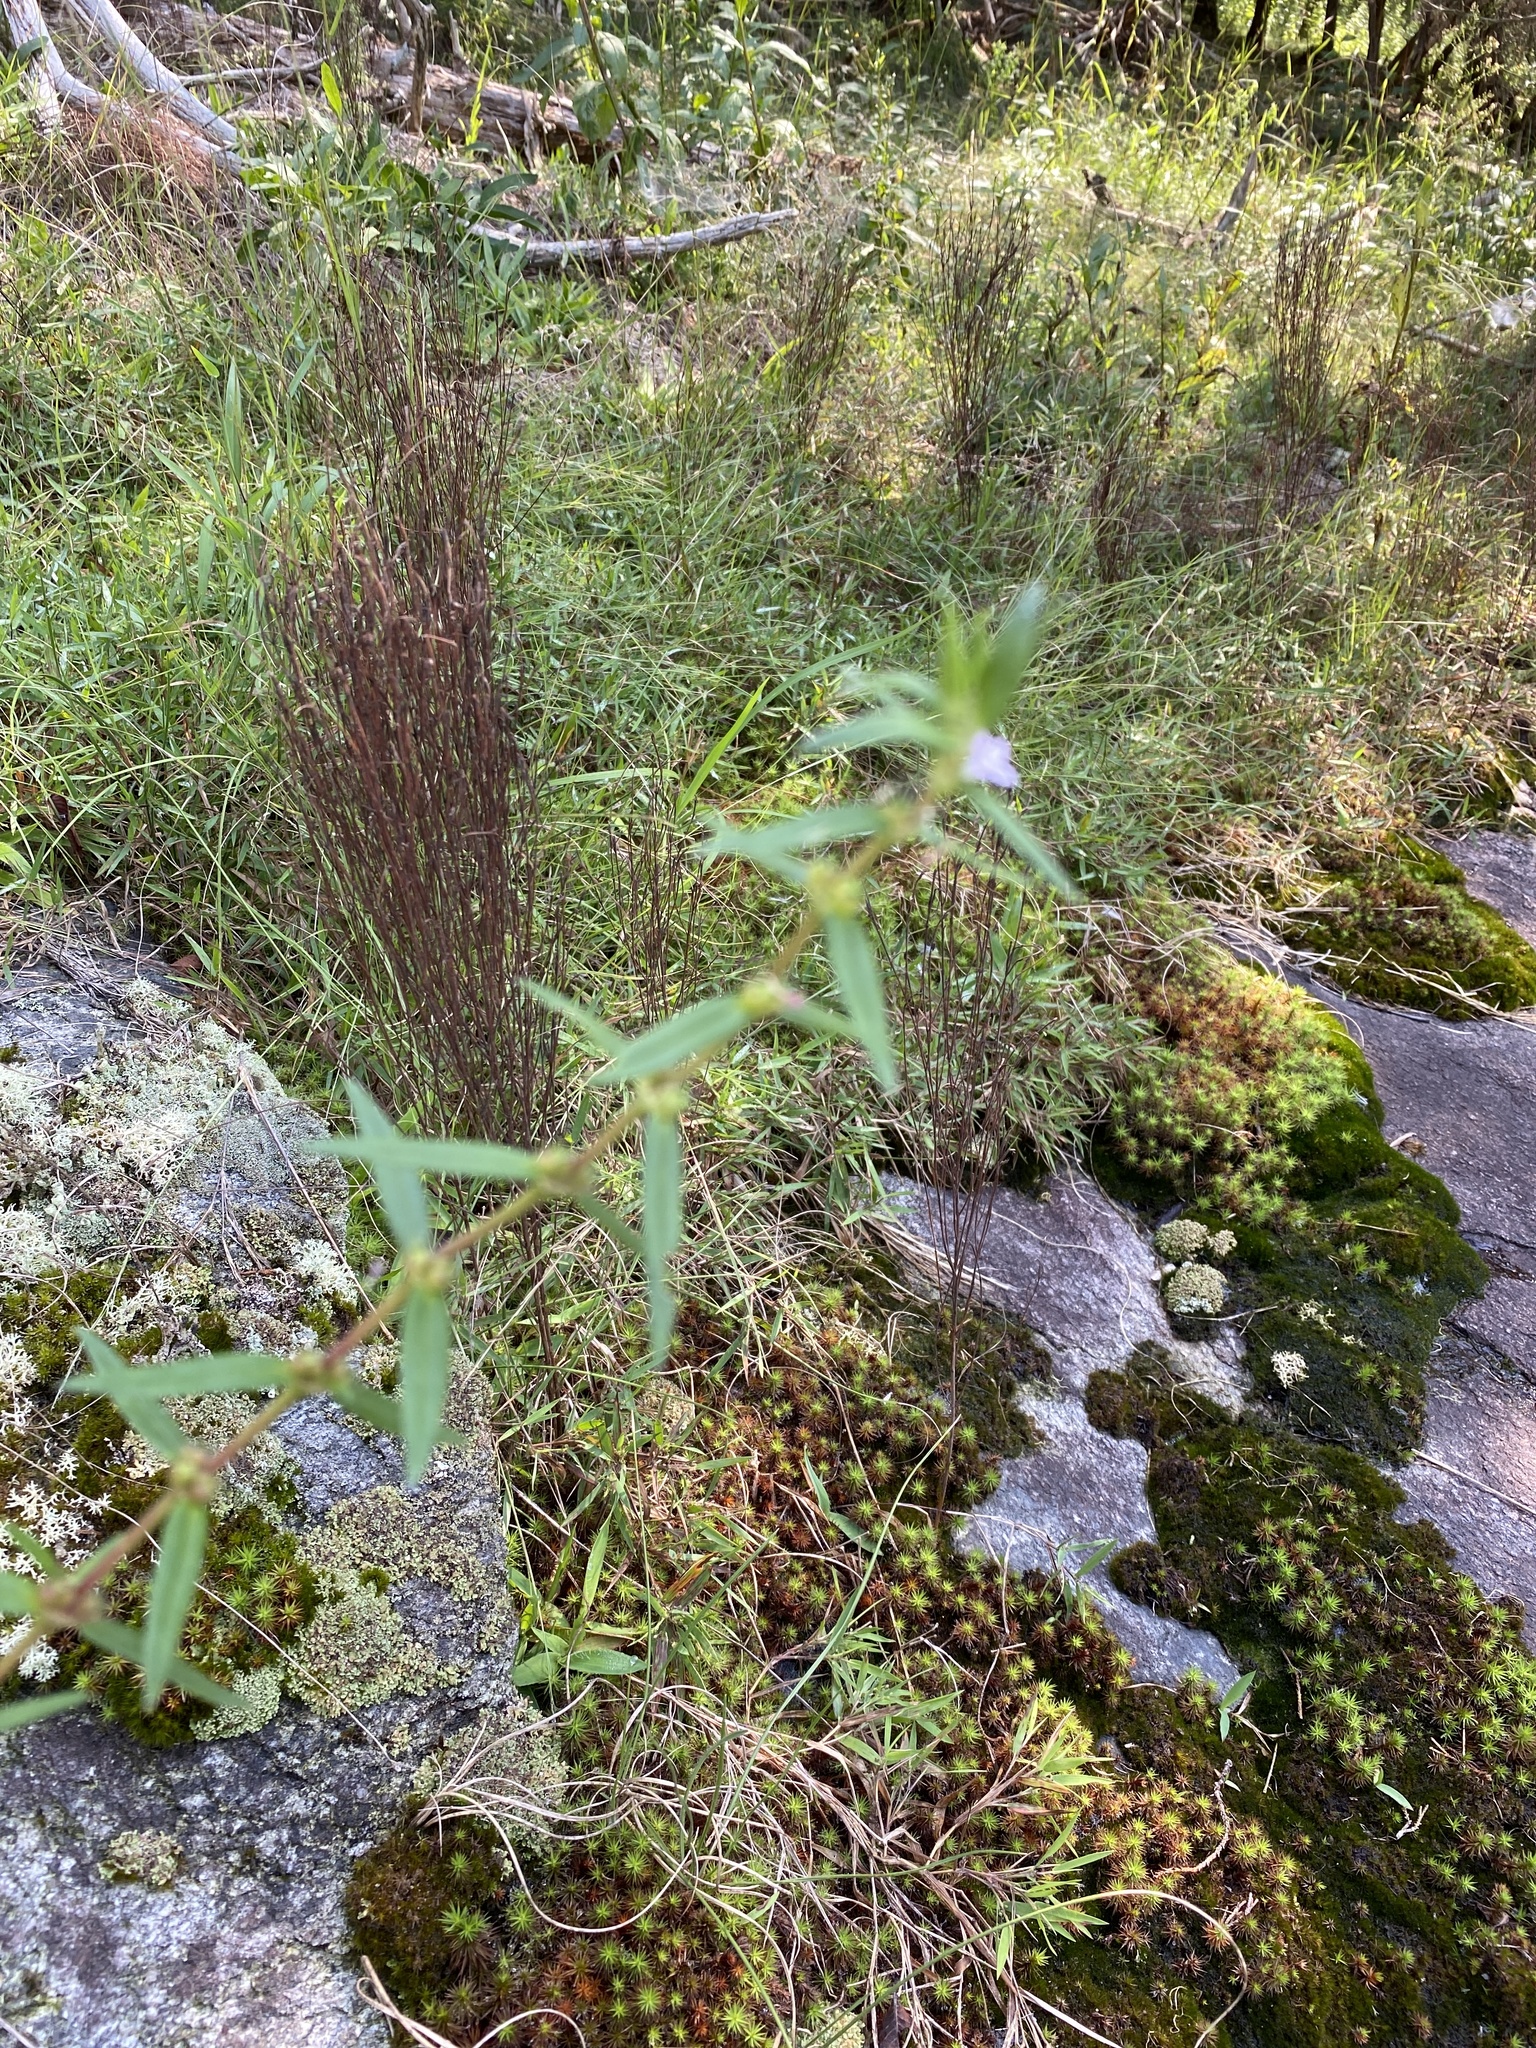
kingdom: Plantae
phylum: Tracheophyta
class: Magnoliopsida
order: Gentianales
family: Rubiaceae
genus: Hexasepalum
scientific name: Hexasepalum teres
